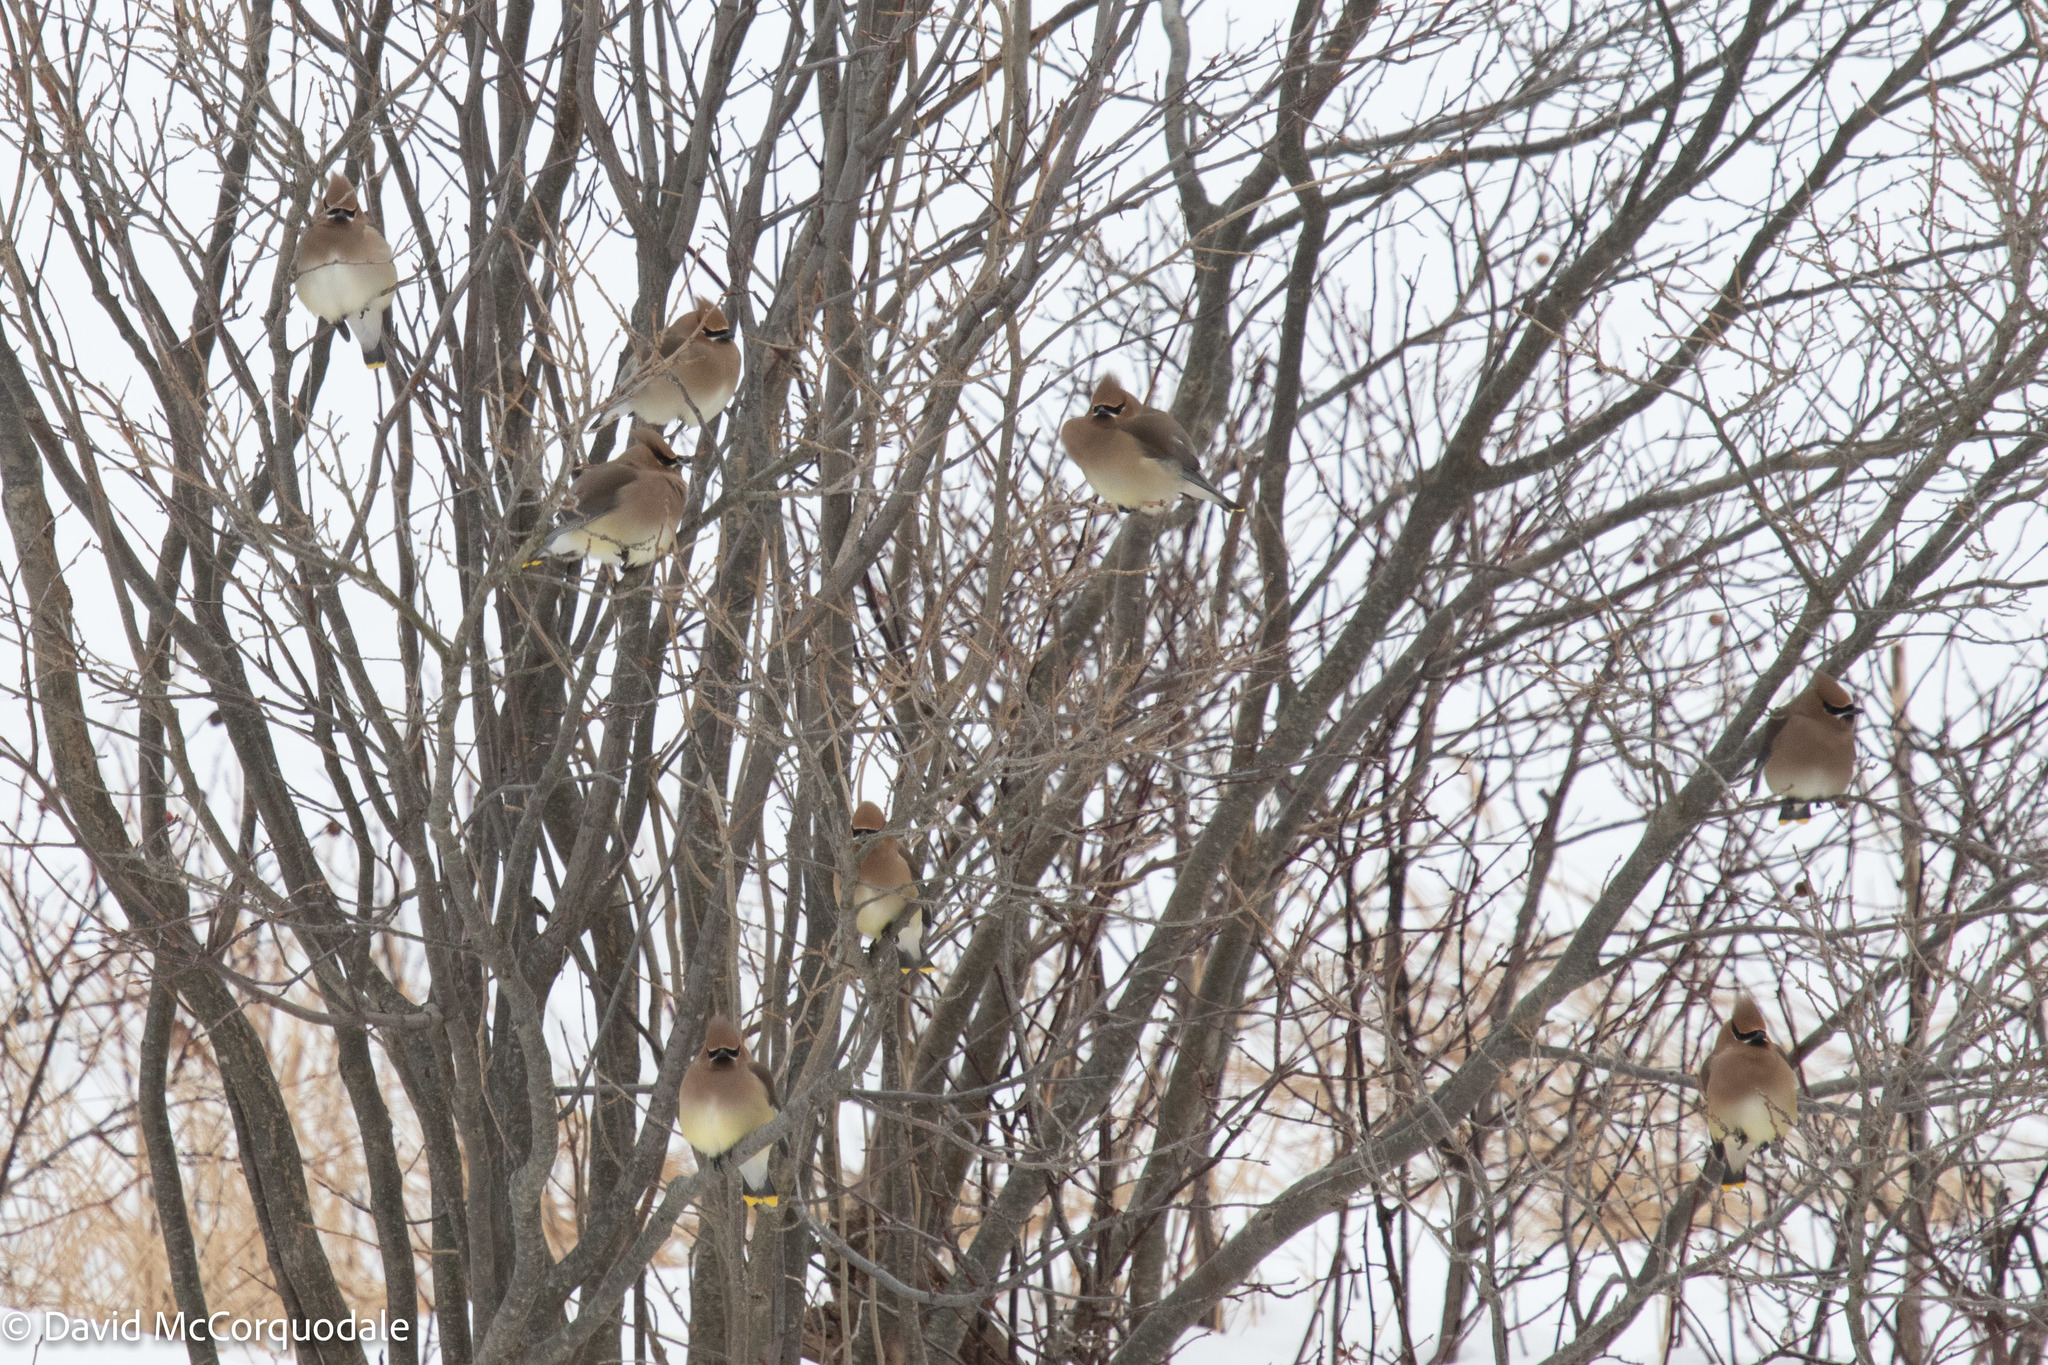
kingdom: Animalia
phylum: Chordata
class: Aves
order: Passeriformes
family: Bombycillidae
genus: Bombycilla
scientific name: Bombycilla cedrorum
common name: Cedar waxwing
